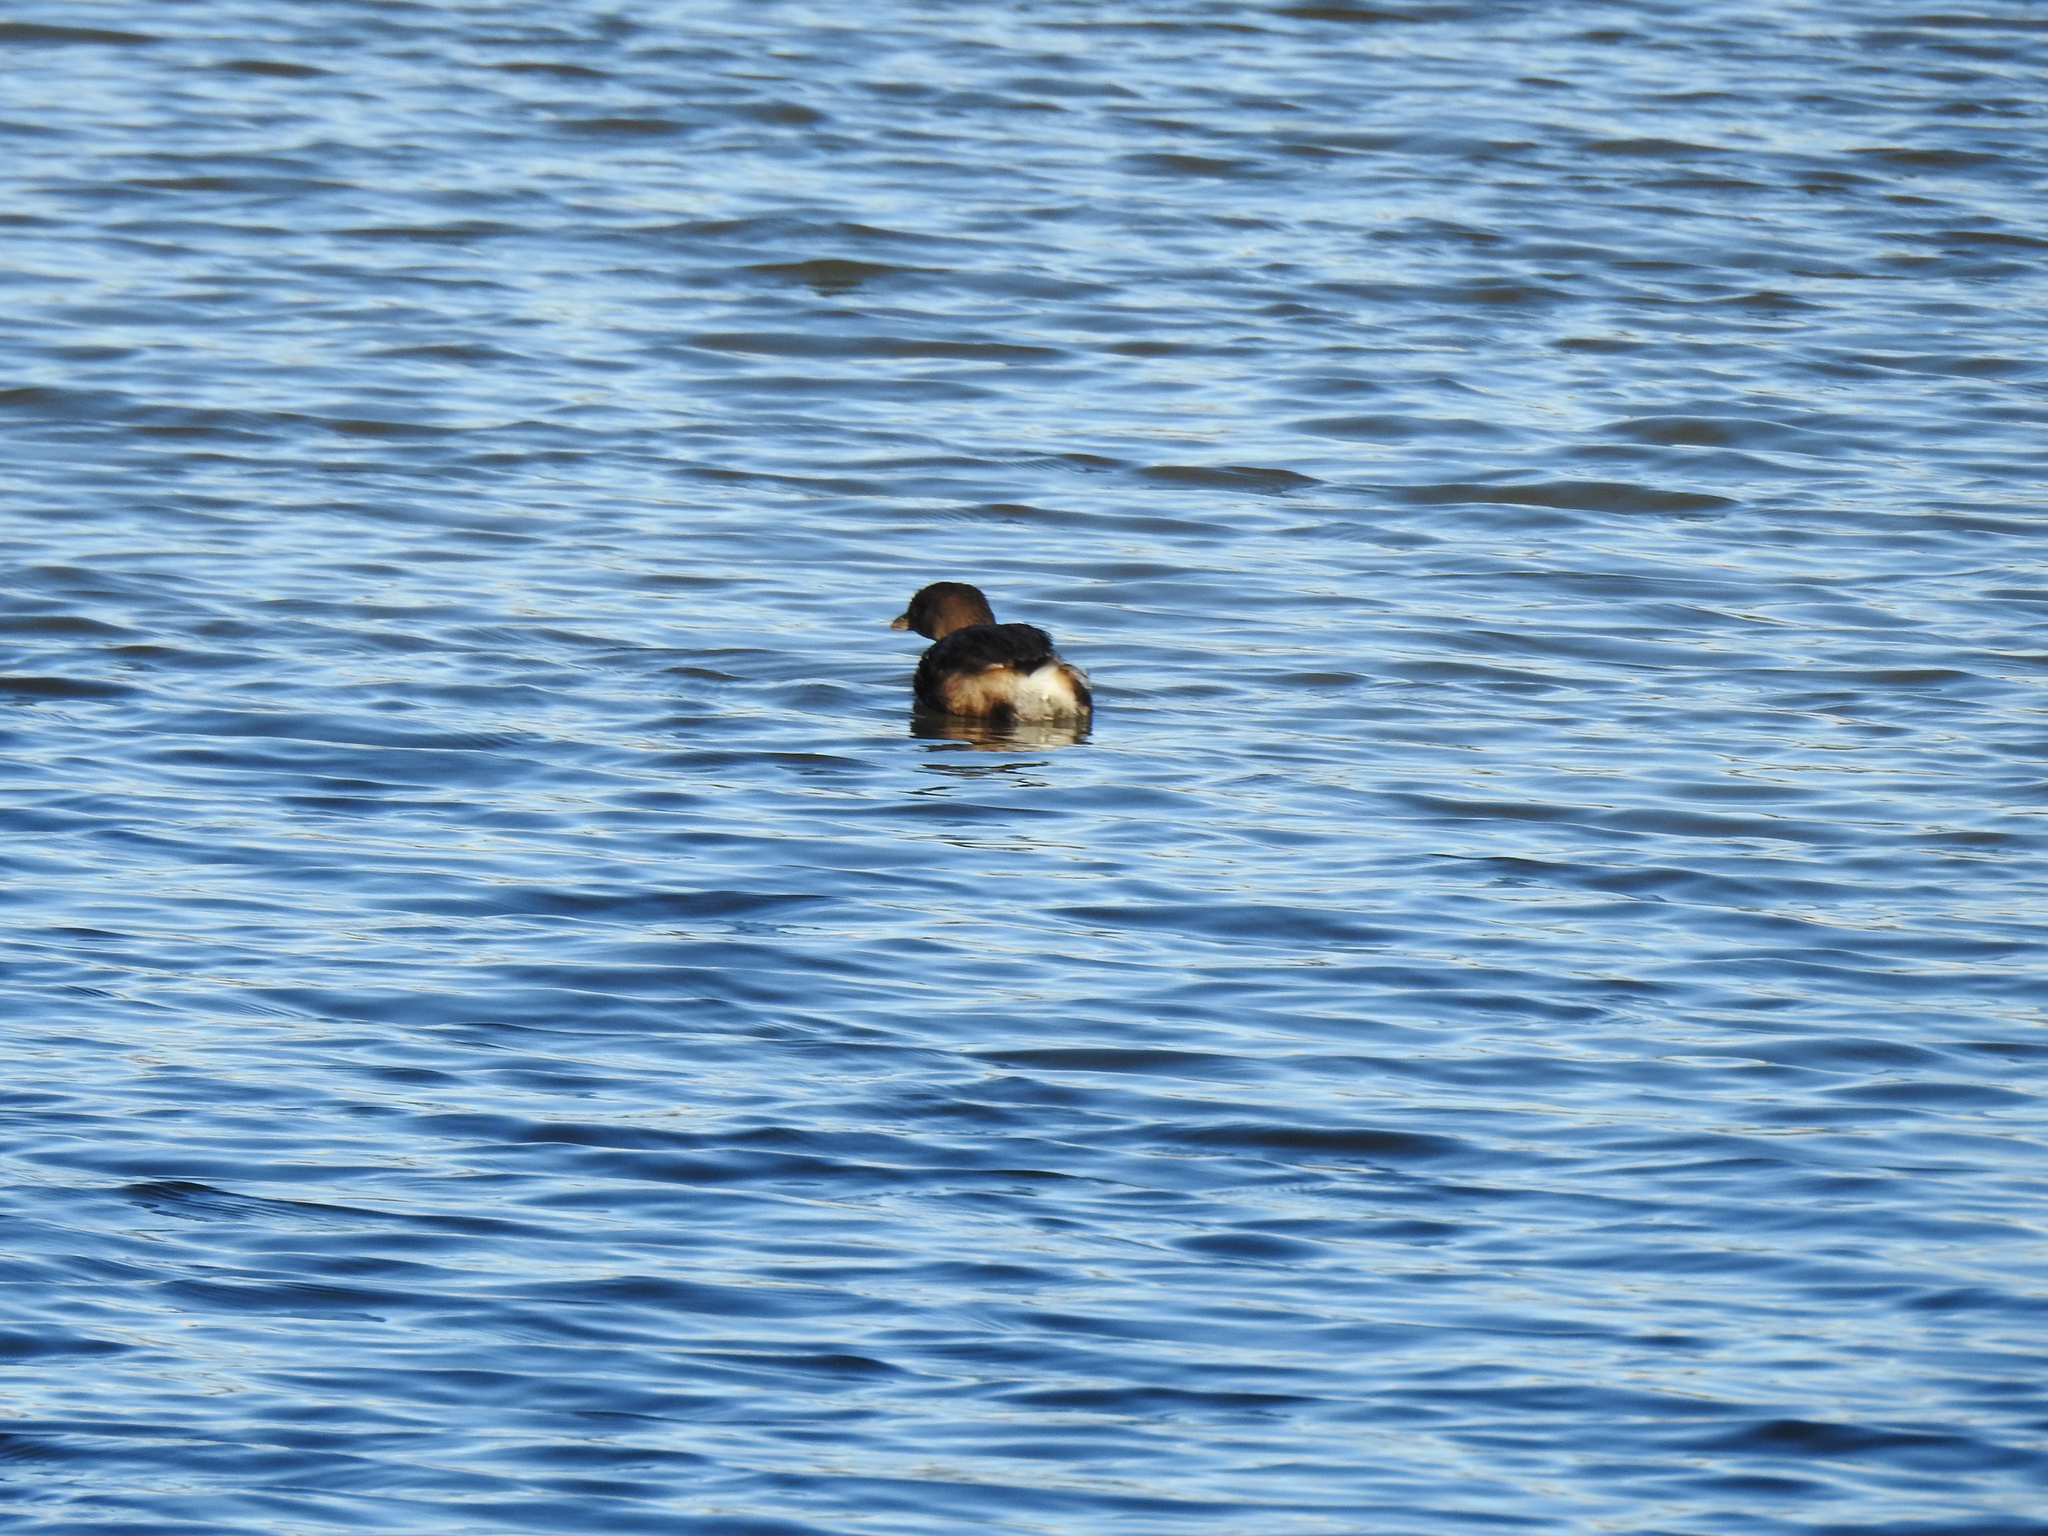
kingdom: Animalia
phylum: Chordata
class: Aves
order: Podicipediformes
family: Podicipedidae
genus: Podilymbus
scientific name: Podilymbus podiceps
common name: Pied-billed grebe
